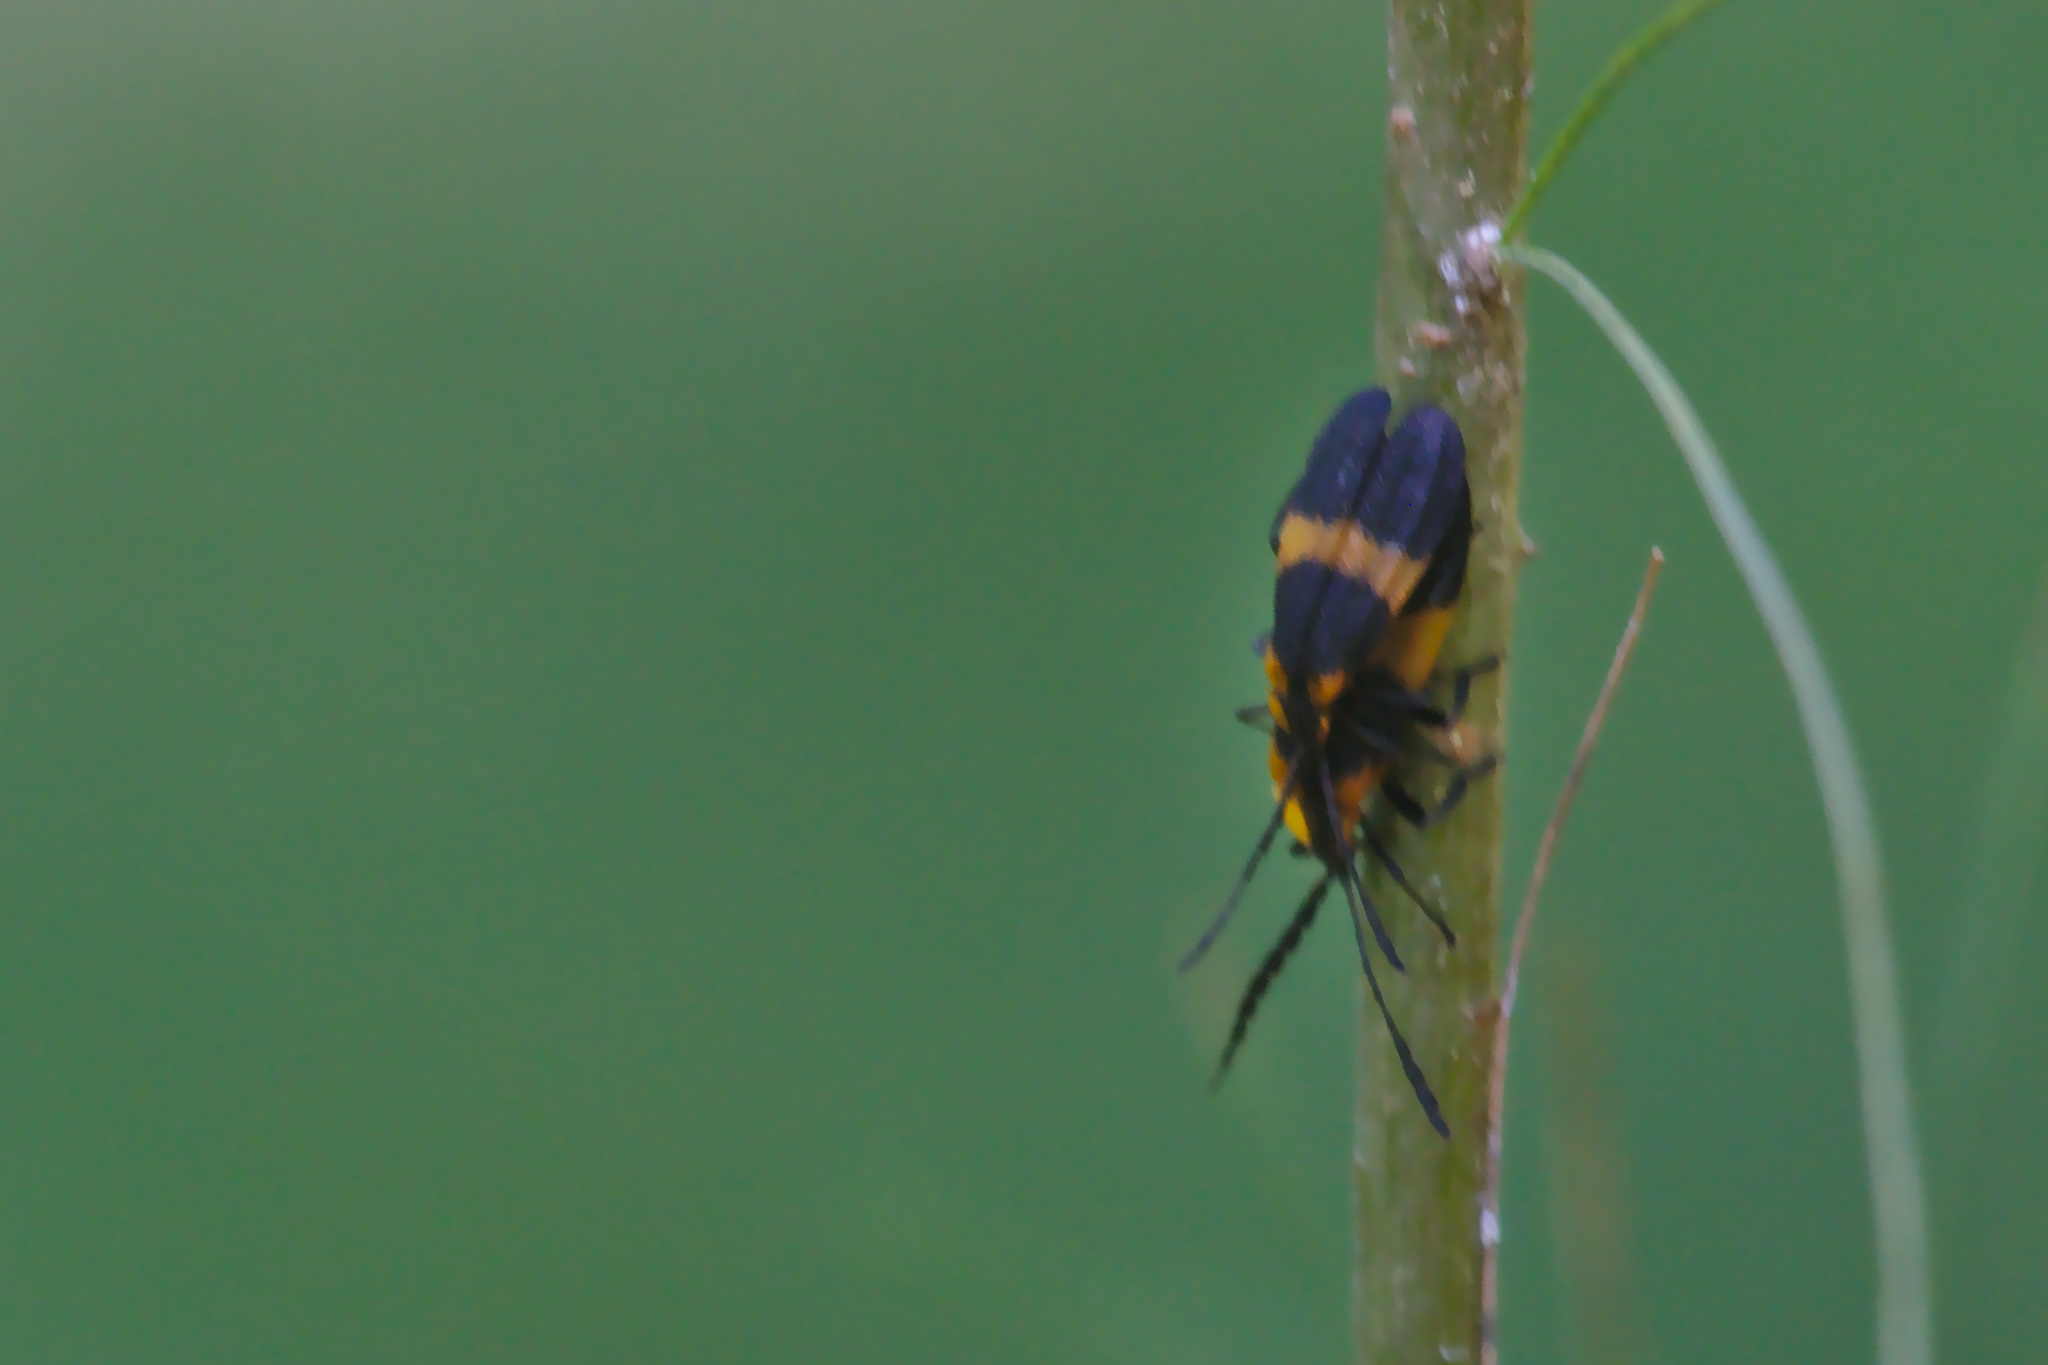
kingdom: Animalia
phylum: Arthropoda
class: Insecta
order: Coleoptera
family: Lycidae
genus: Calopteron
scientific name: Calopteron reticulatum
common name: Banded net-winged beetle
